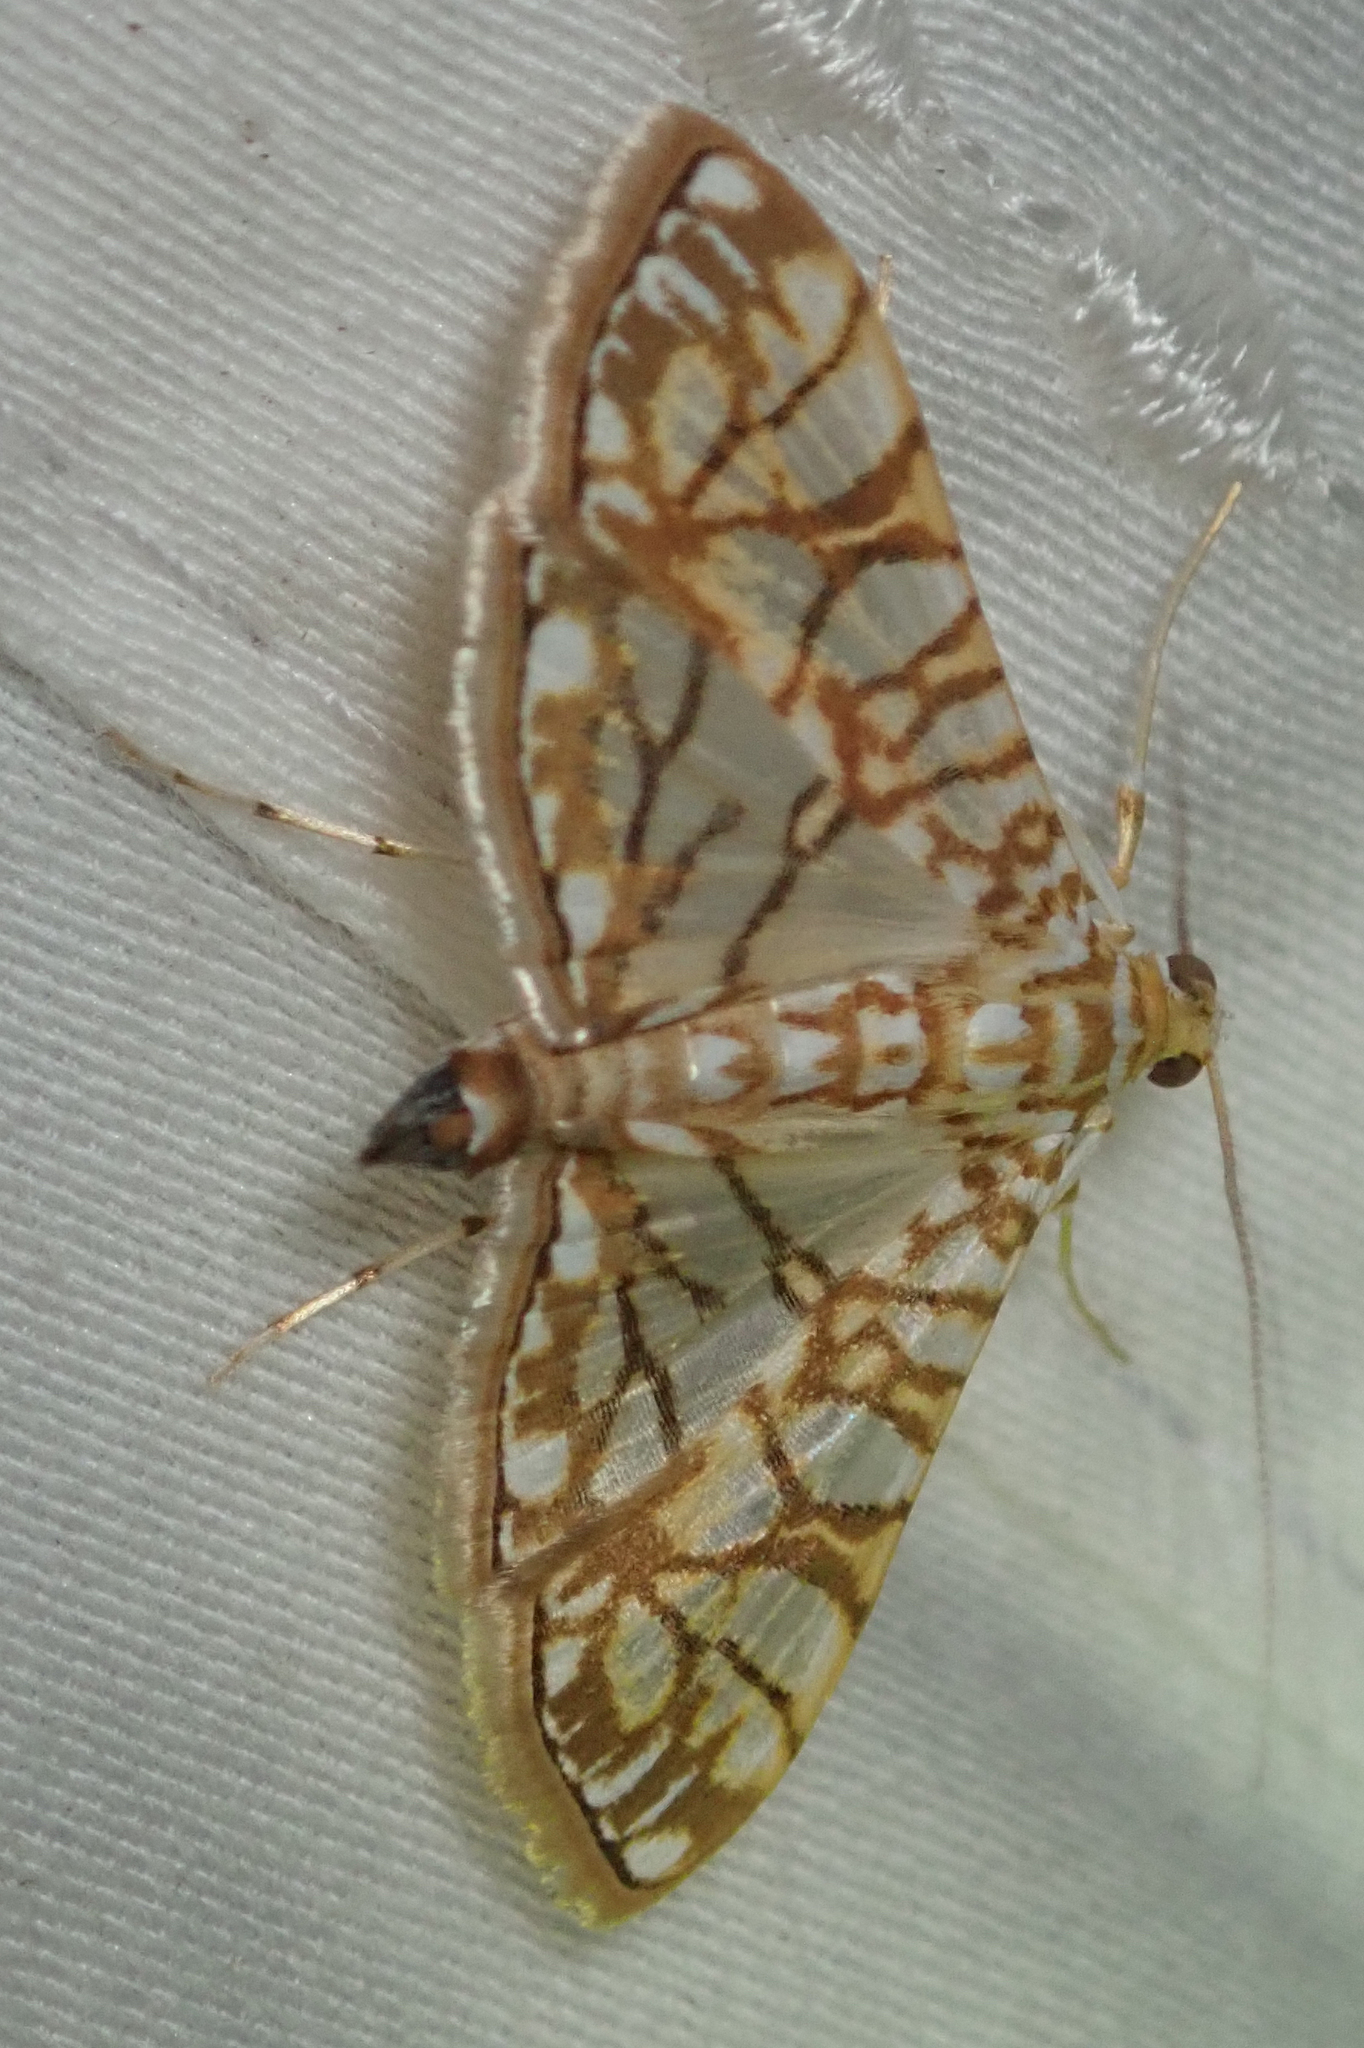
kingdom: Animalia
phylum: Arthropoda
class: Insecta
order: Lepidoptera
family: Crambidae
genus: Synclera
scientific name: Synclera traducalis
